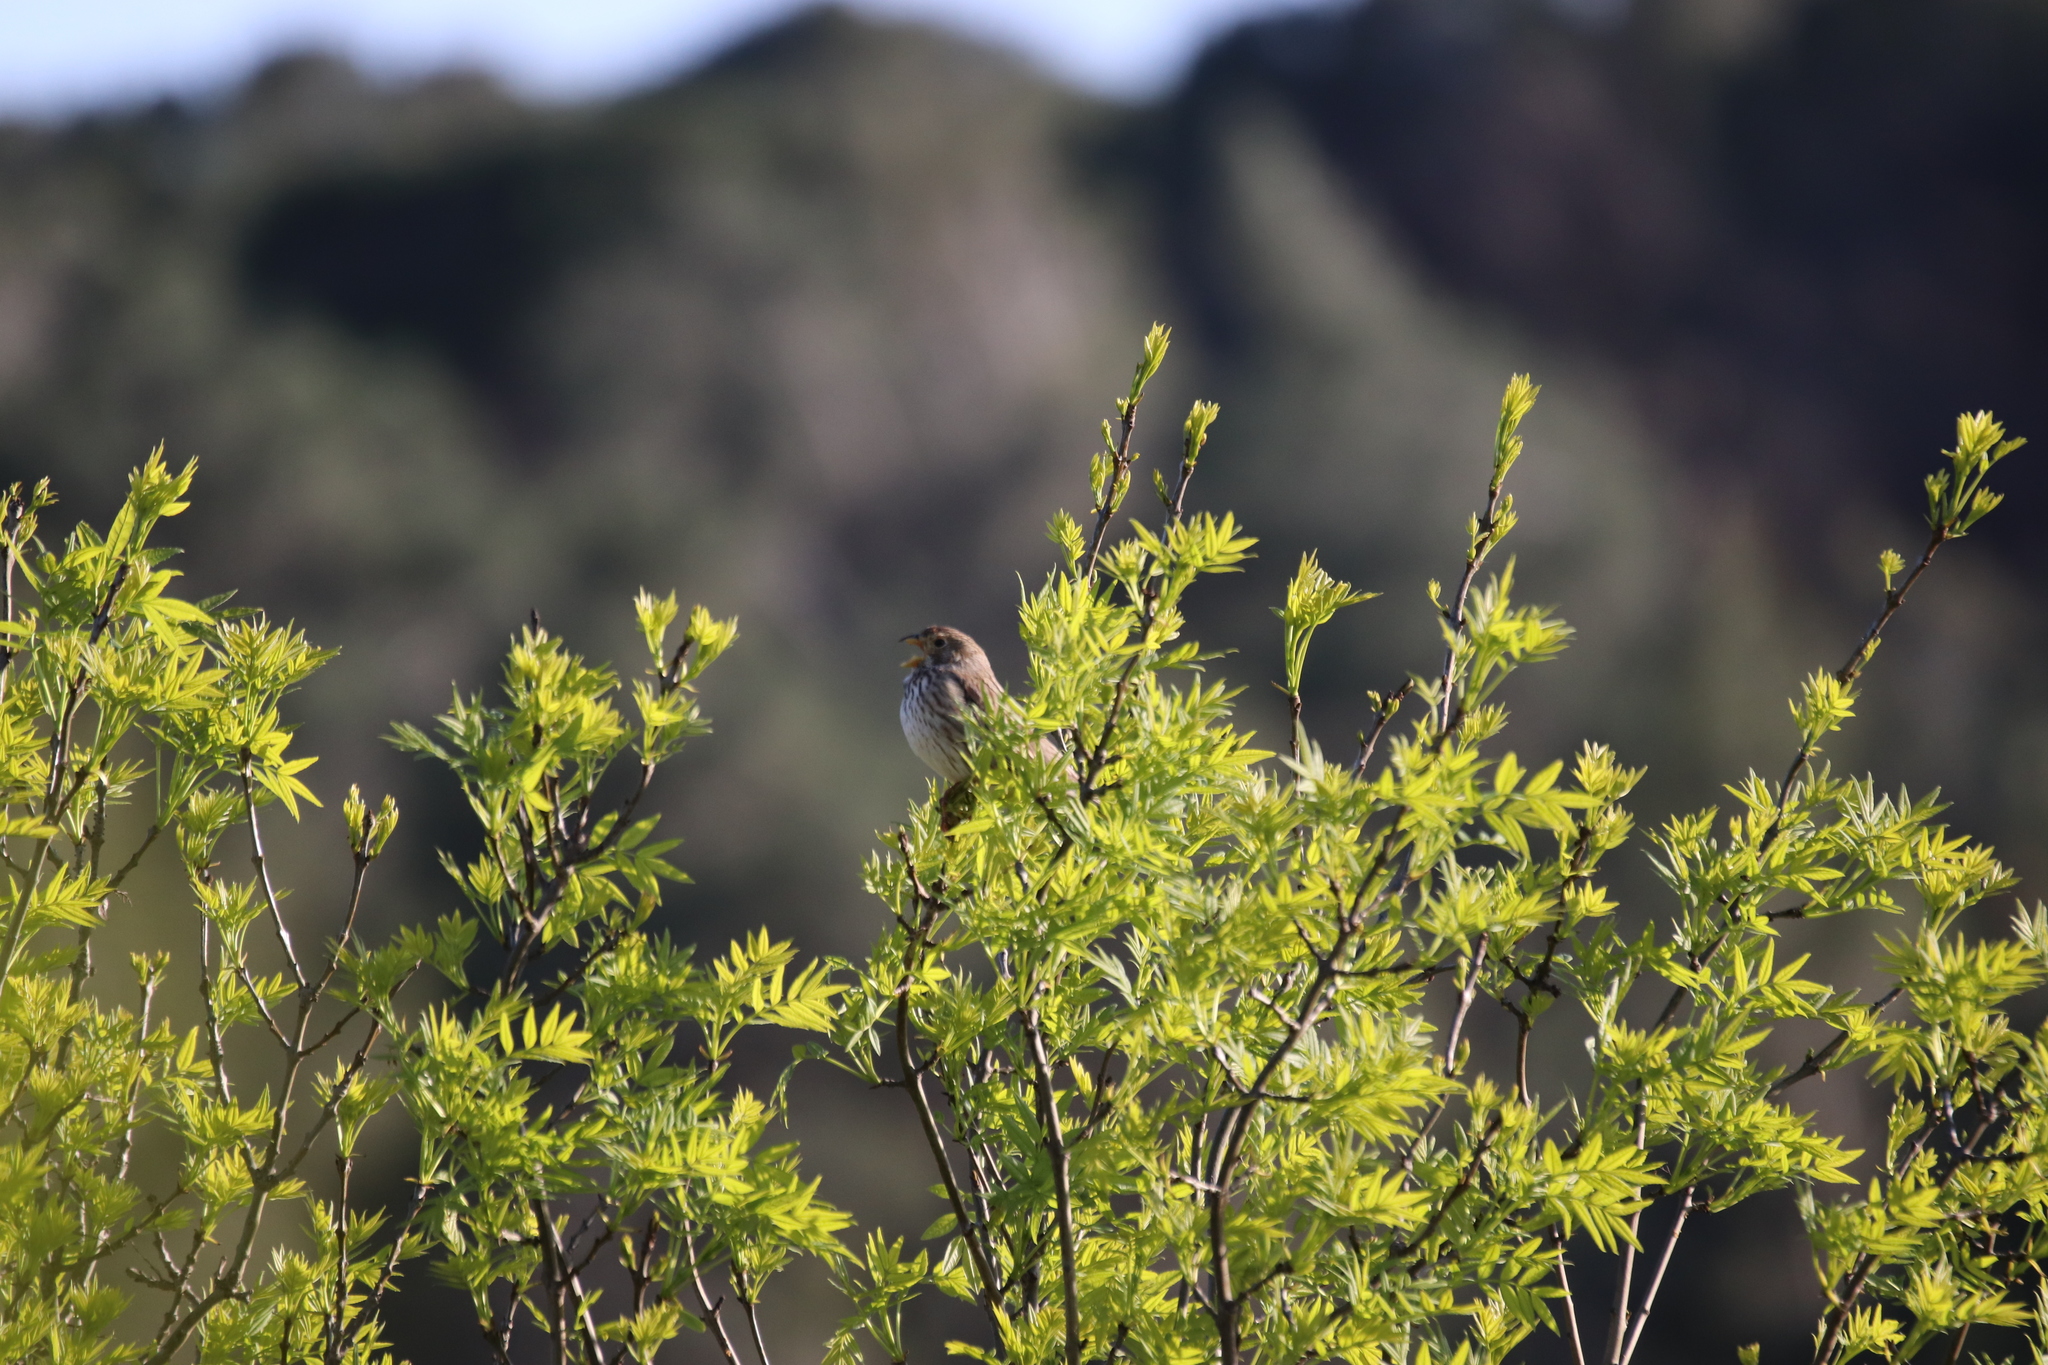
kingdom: Animalia
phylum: Chordata
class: Aves
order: Passeriformes
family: Emberizidae
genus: Emberiza
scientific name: Emberiza calandra
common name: Corn bunting
